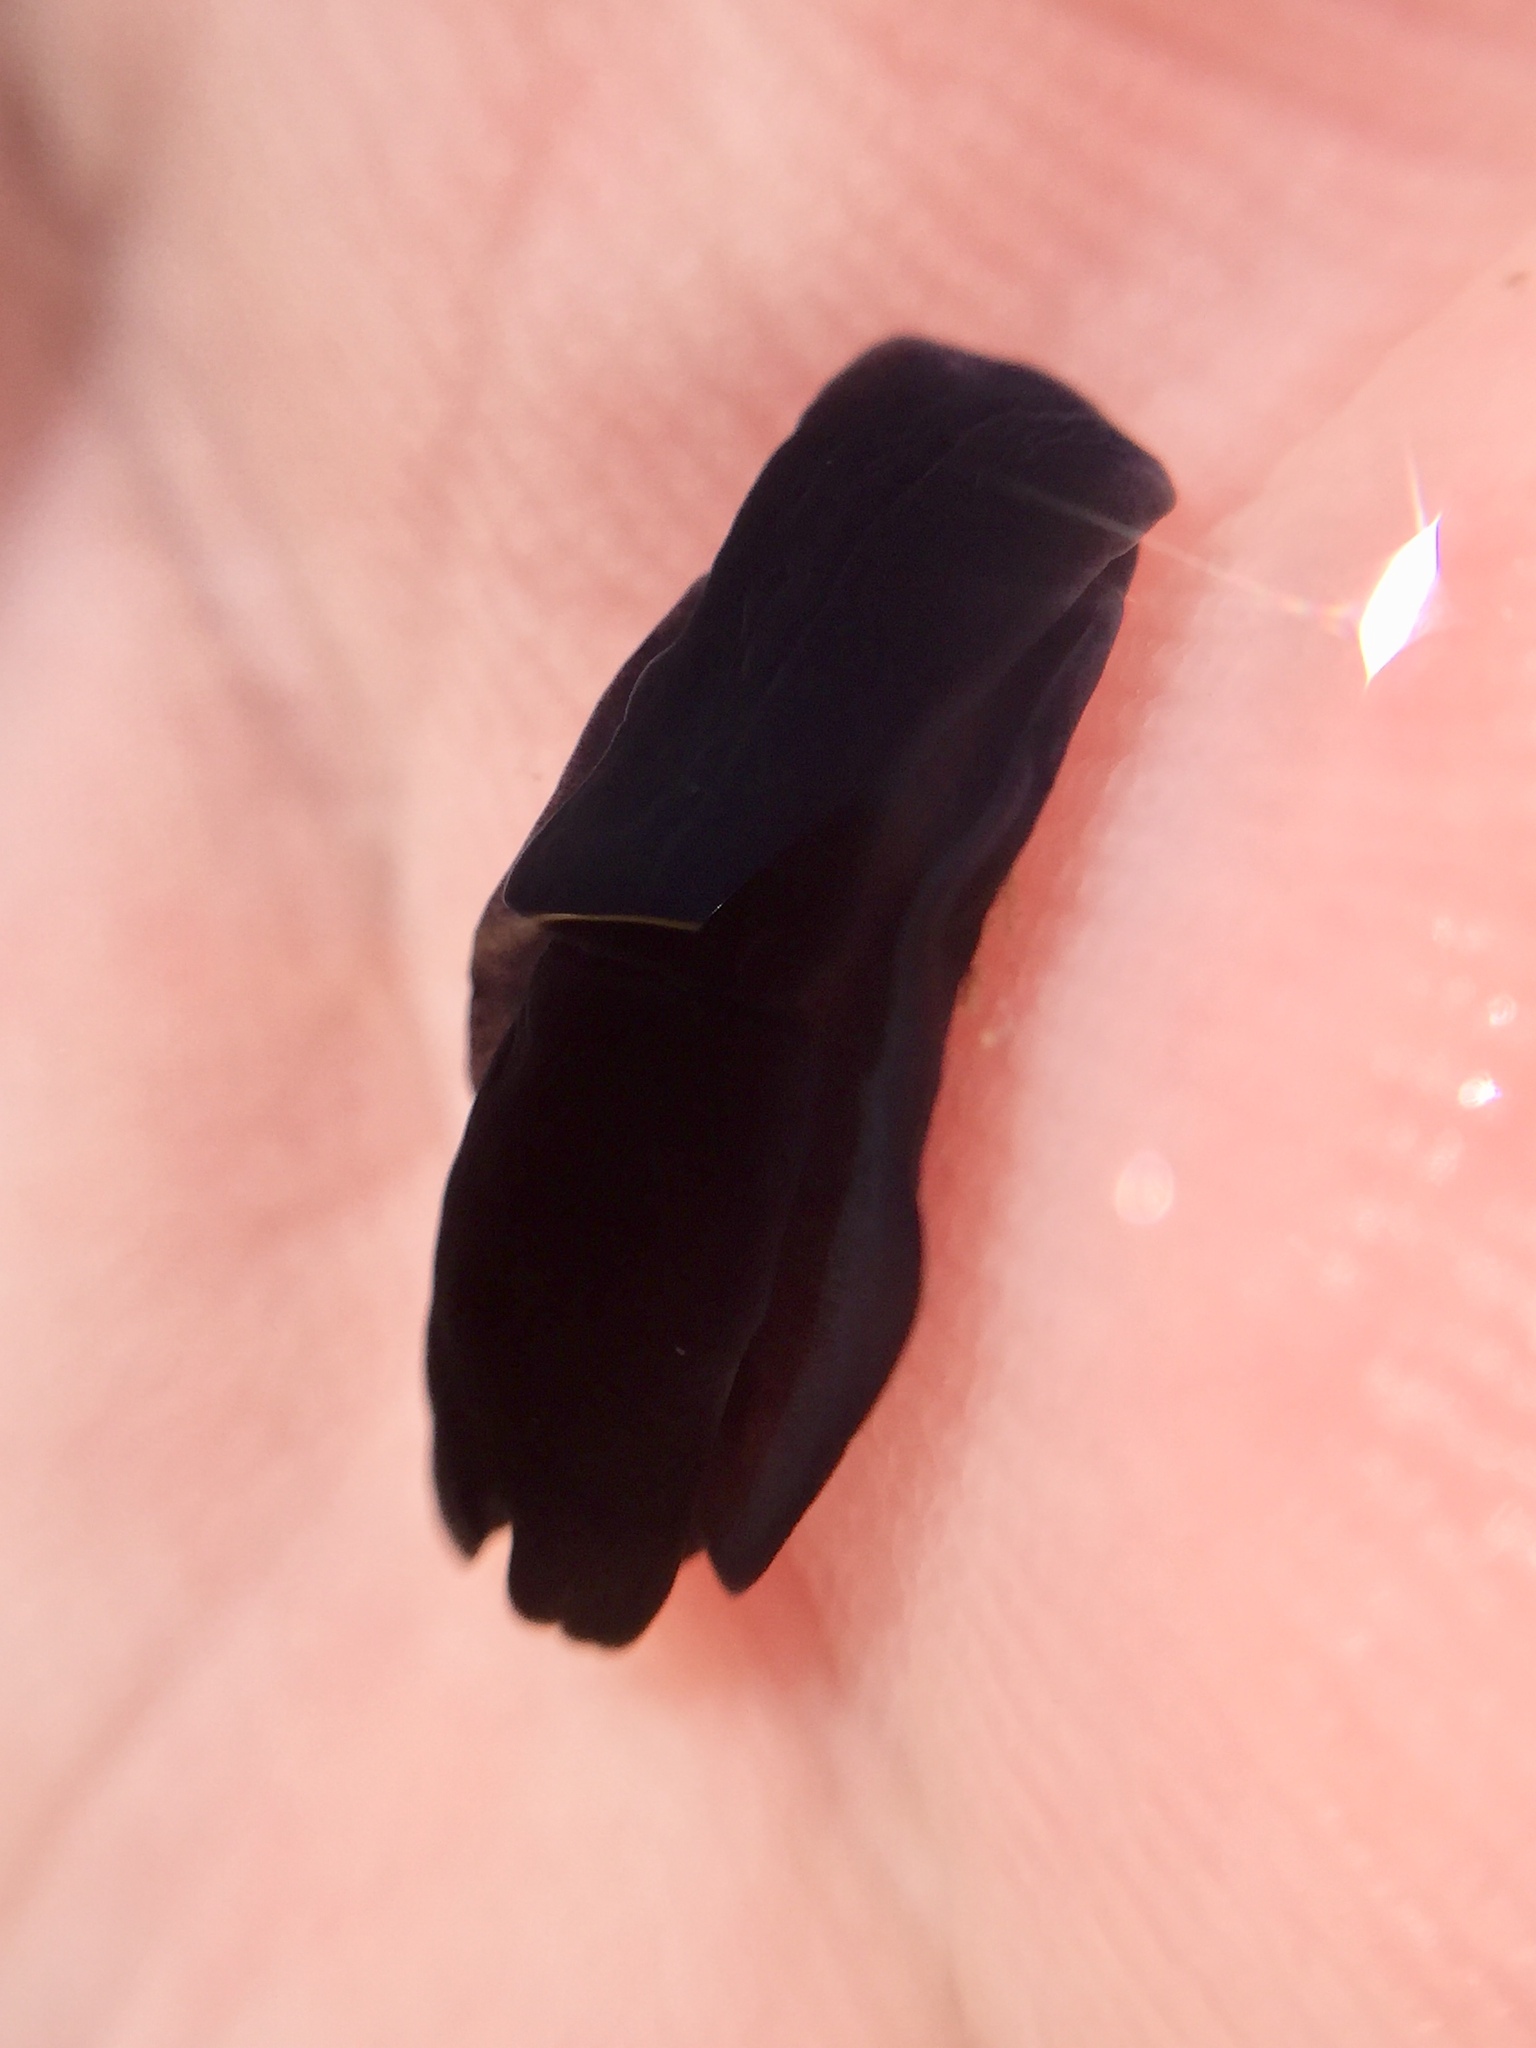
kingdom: Animalia
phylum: Mollusca
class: Gastropoda
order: Cephalaspidea
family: Aglajidae
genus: Melanochlamys
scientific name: Melanochlamys cylindrica
